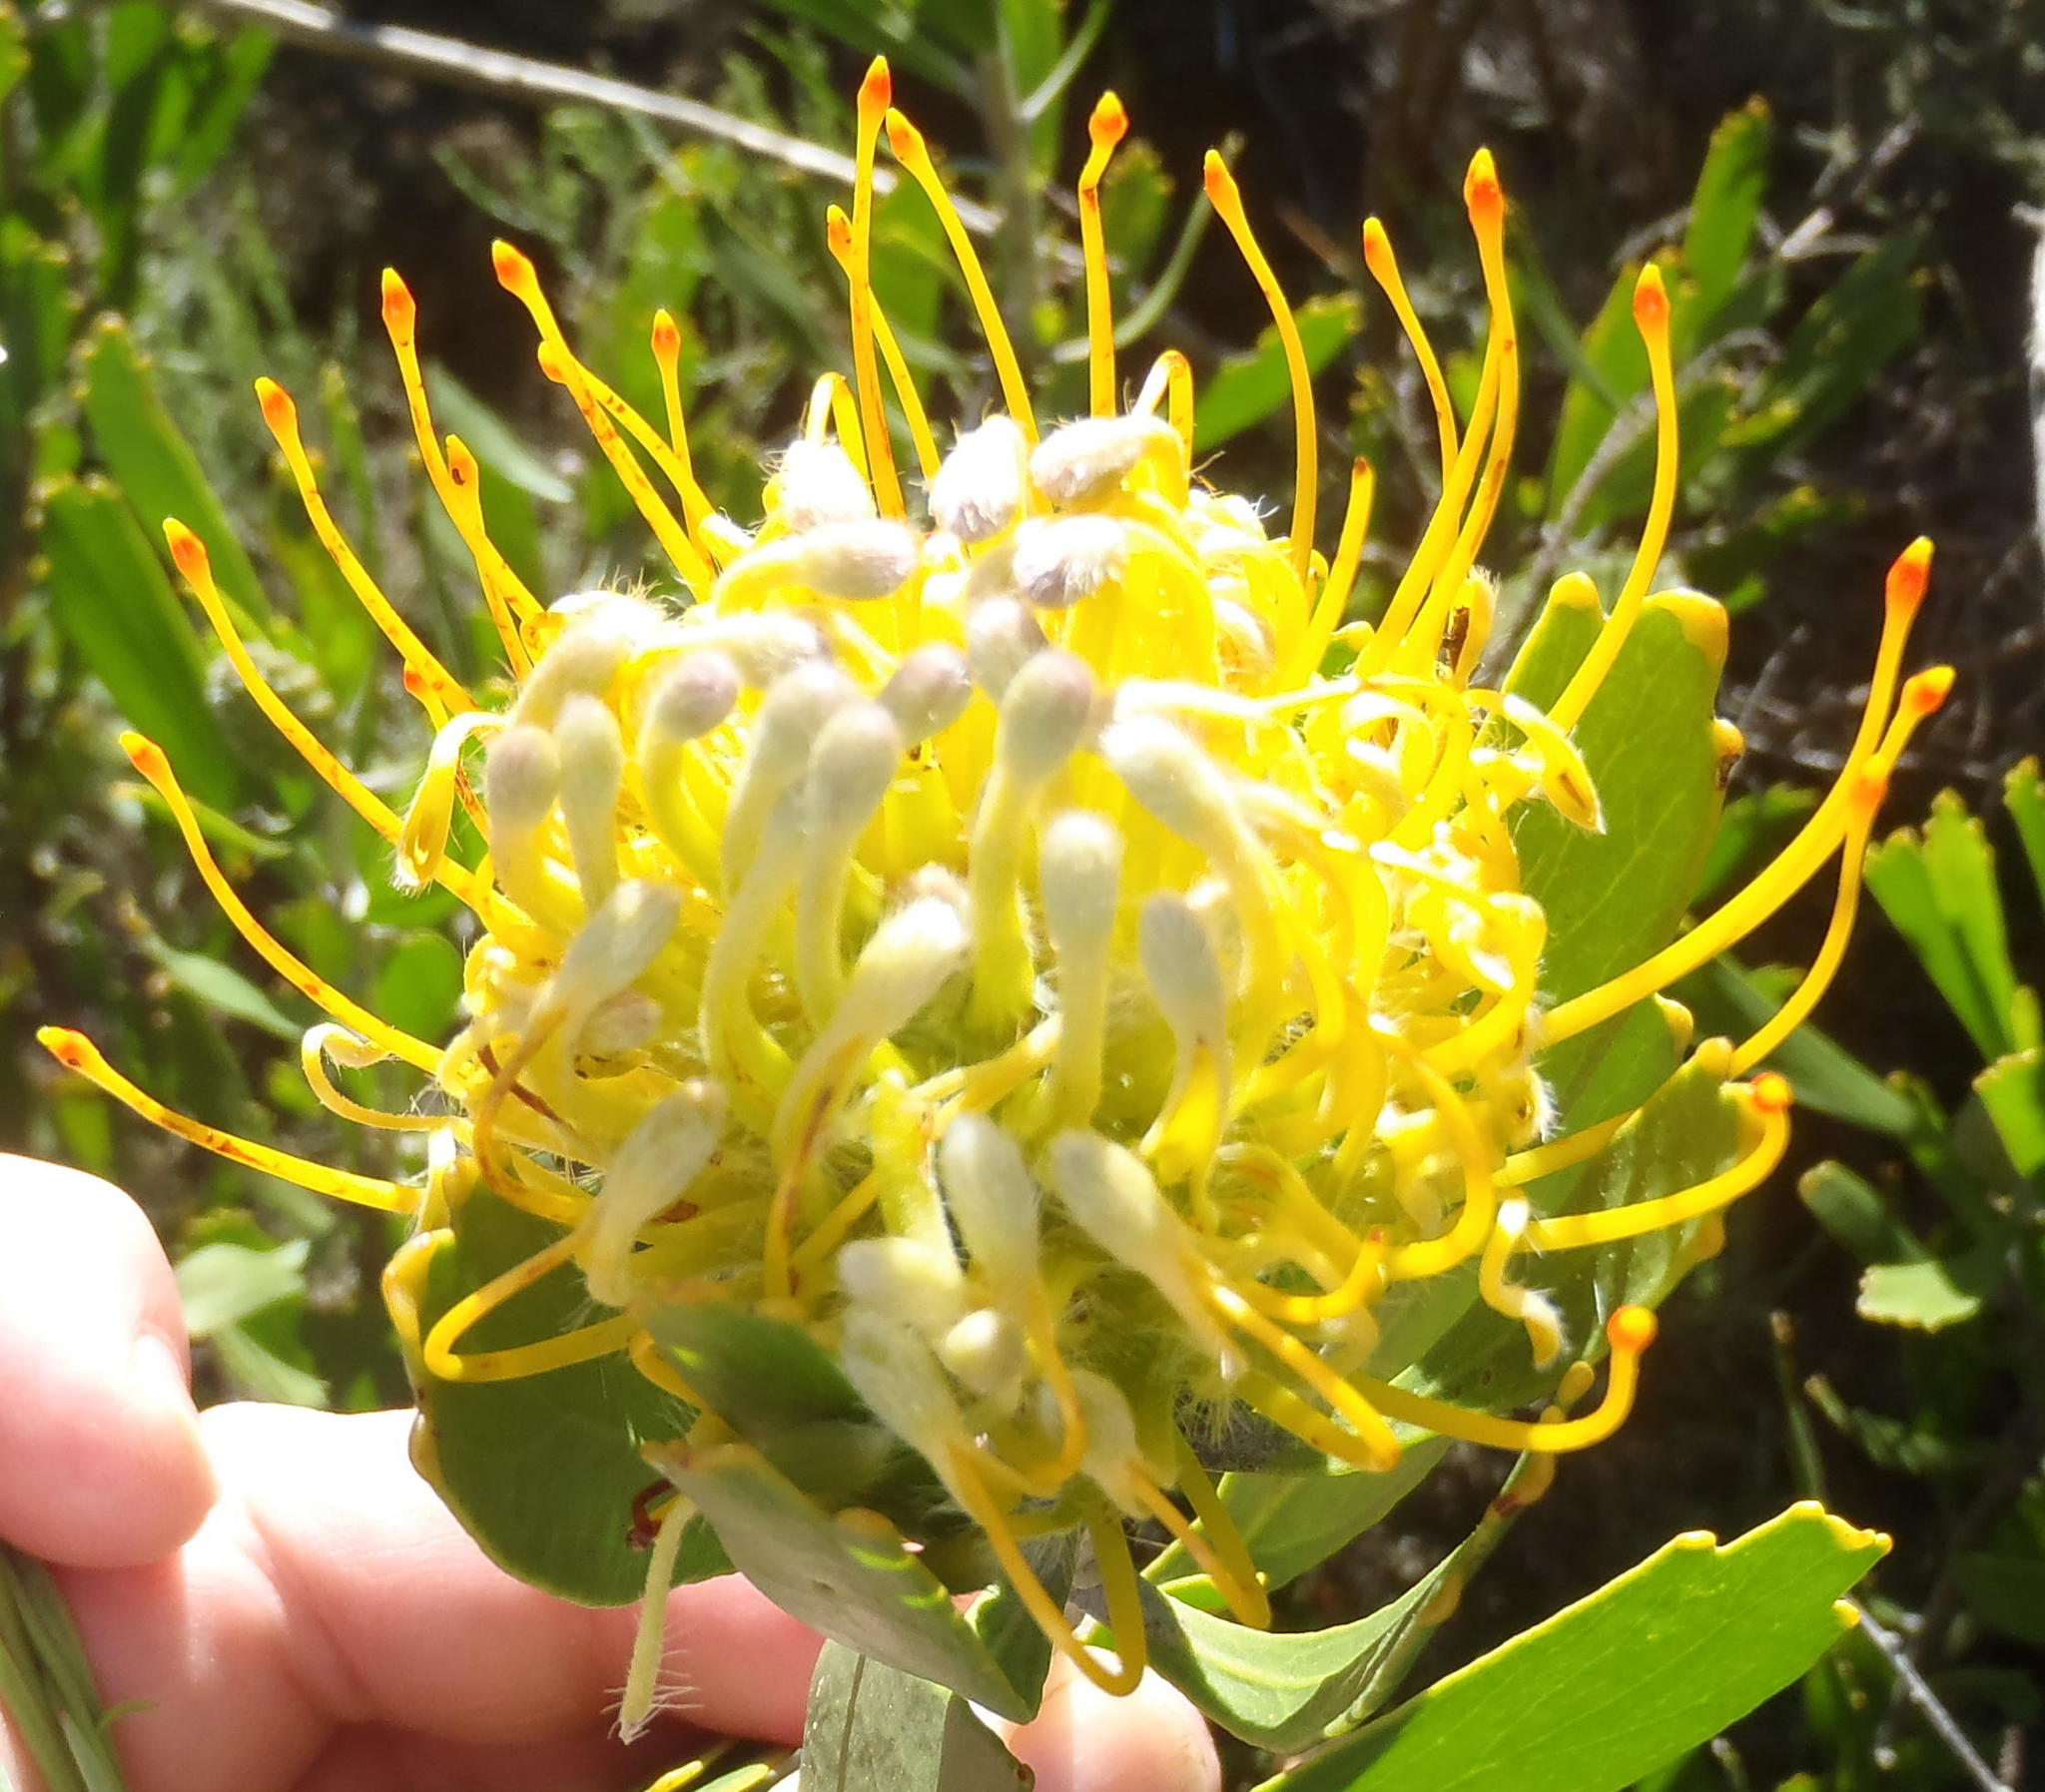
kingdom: Plantae
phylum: Tracheophyta
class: Magnoliopsida
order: Proteales
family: Proteaceae
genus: Leucospermum
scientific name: Leucospermum cuneiforme
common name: Common pincushion
